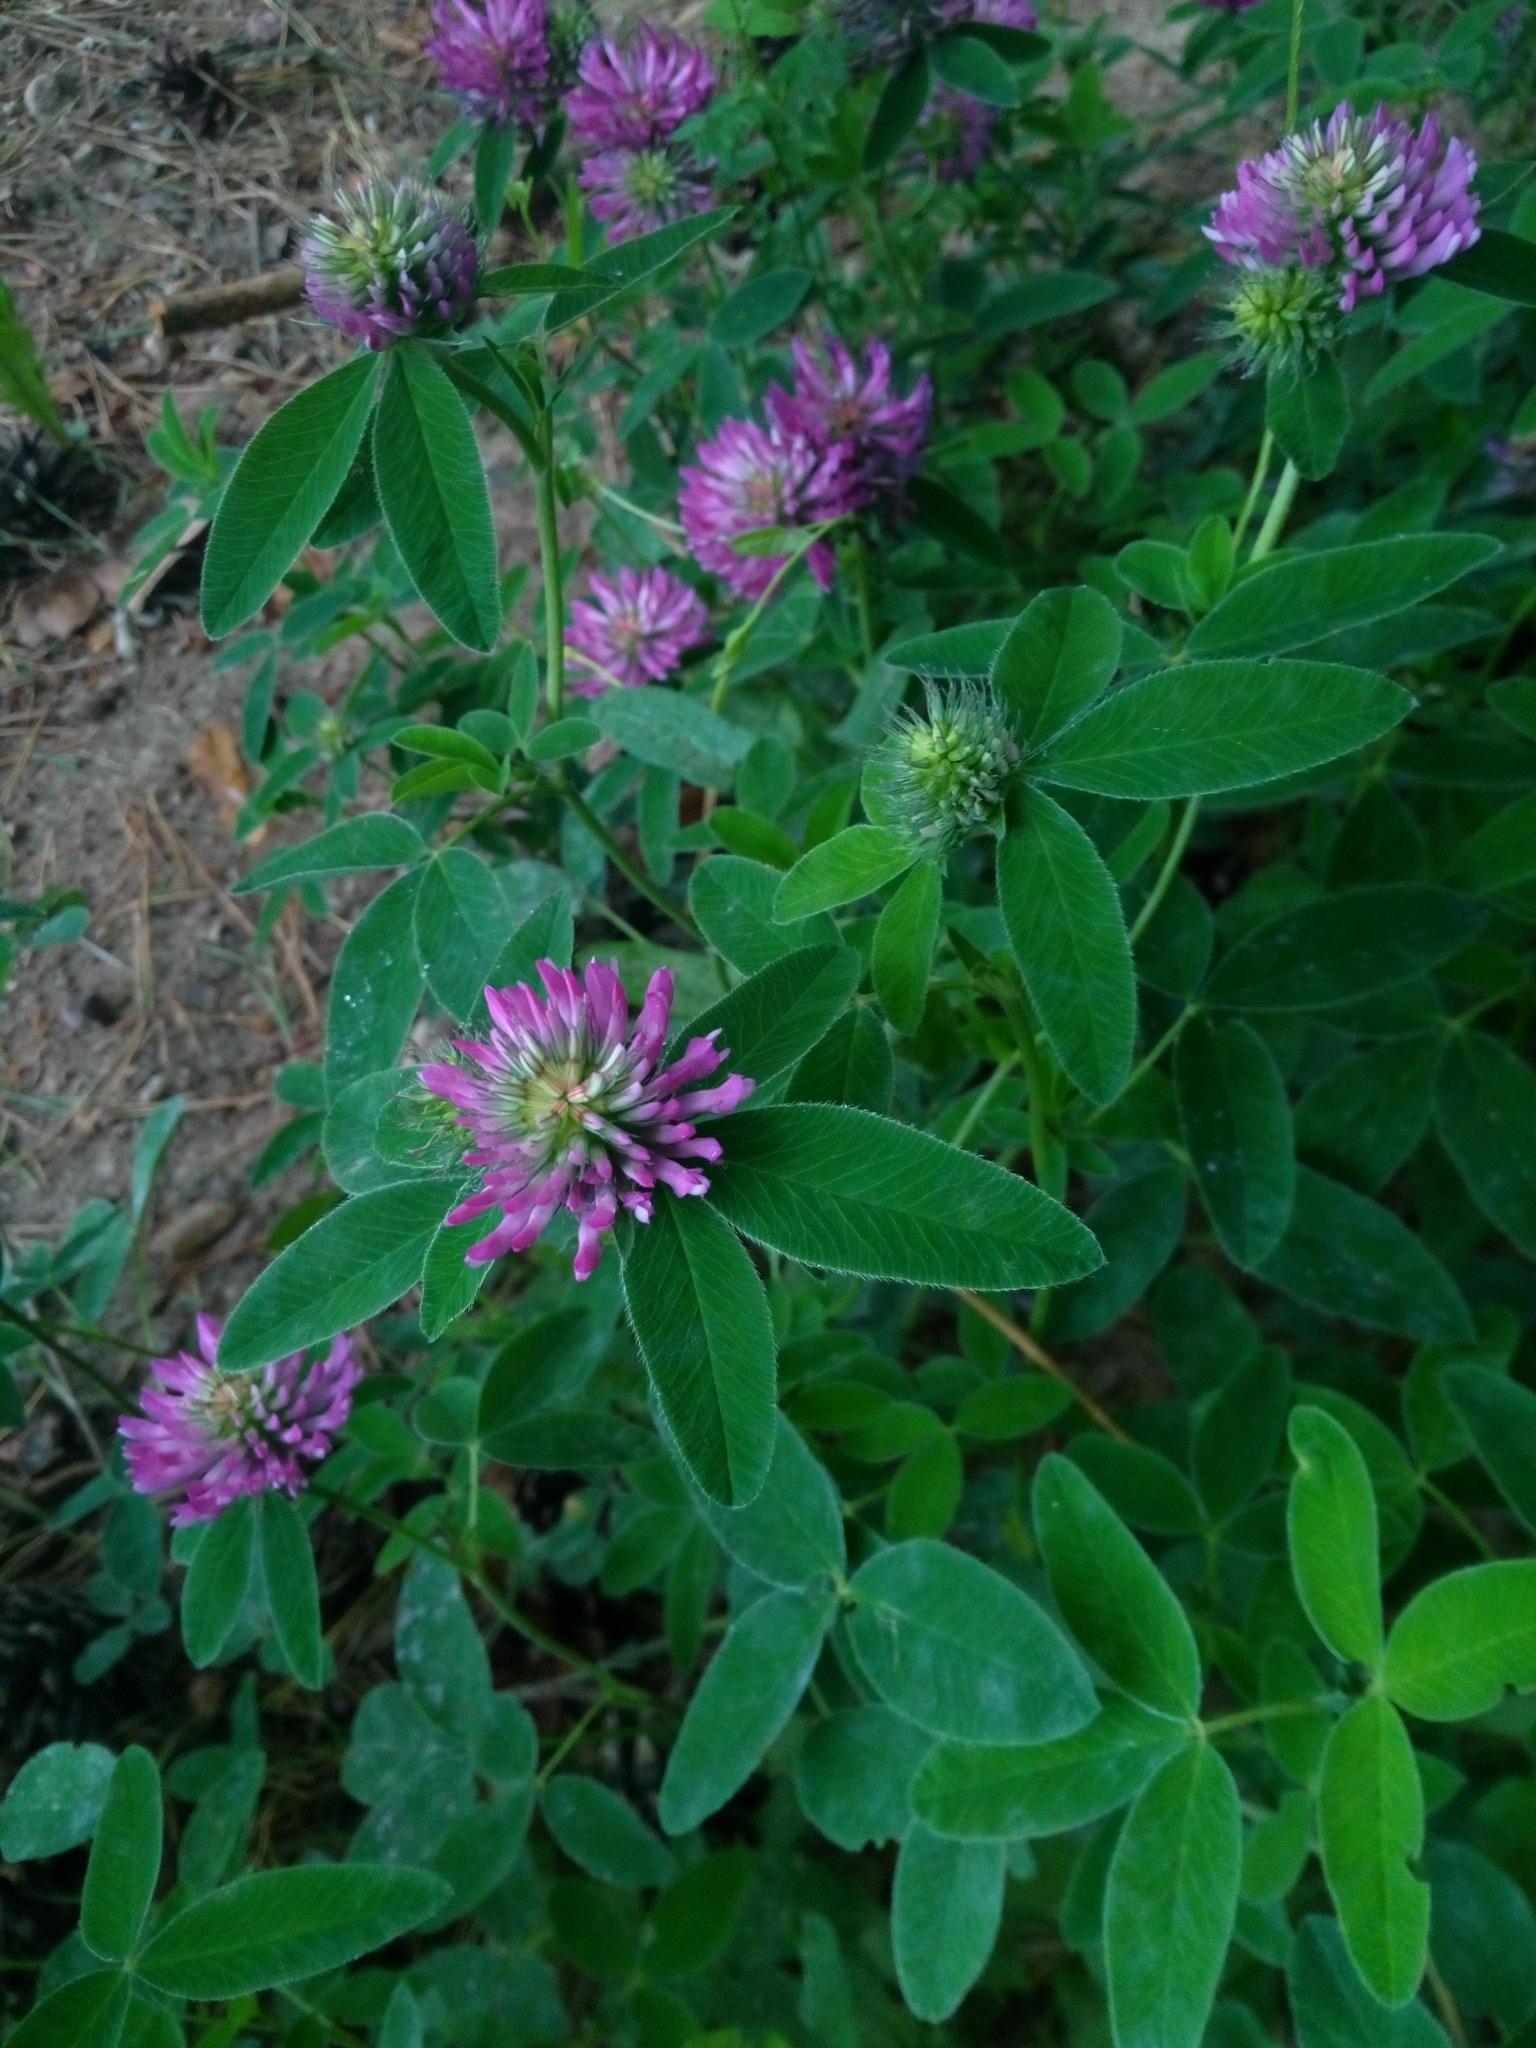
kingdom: Plantae
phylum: Tracheophyta
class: Magnoliopsida
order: Fabales
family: Fabaceae
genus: Trifolium
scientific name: Trifolium medium
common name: Zigzag clover
